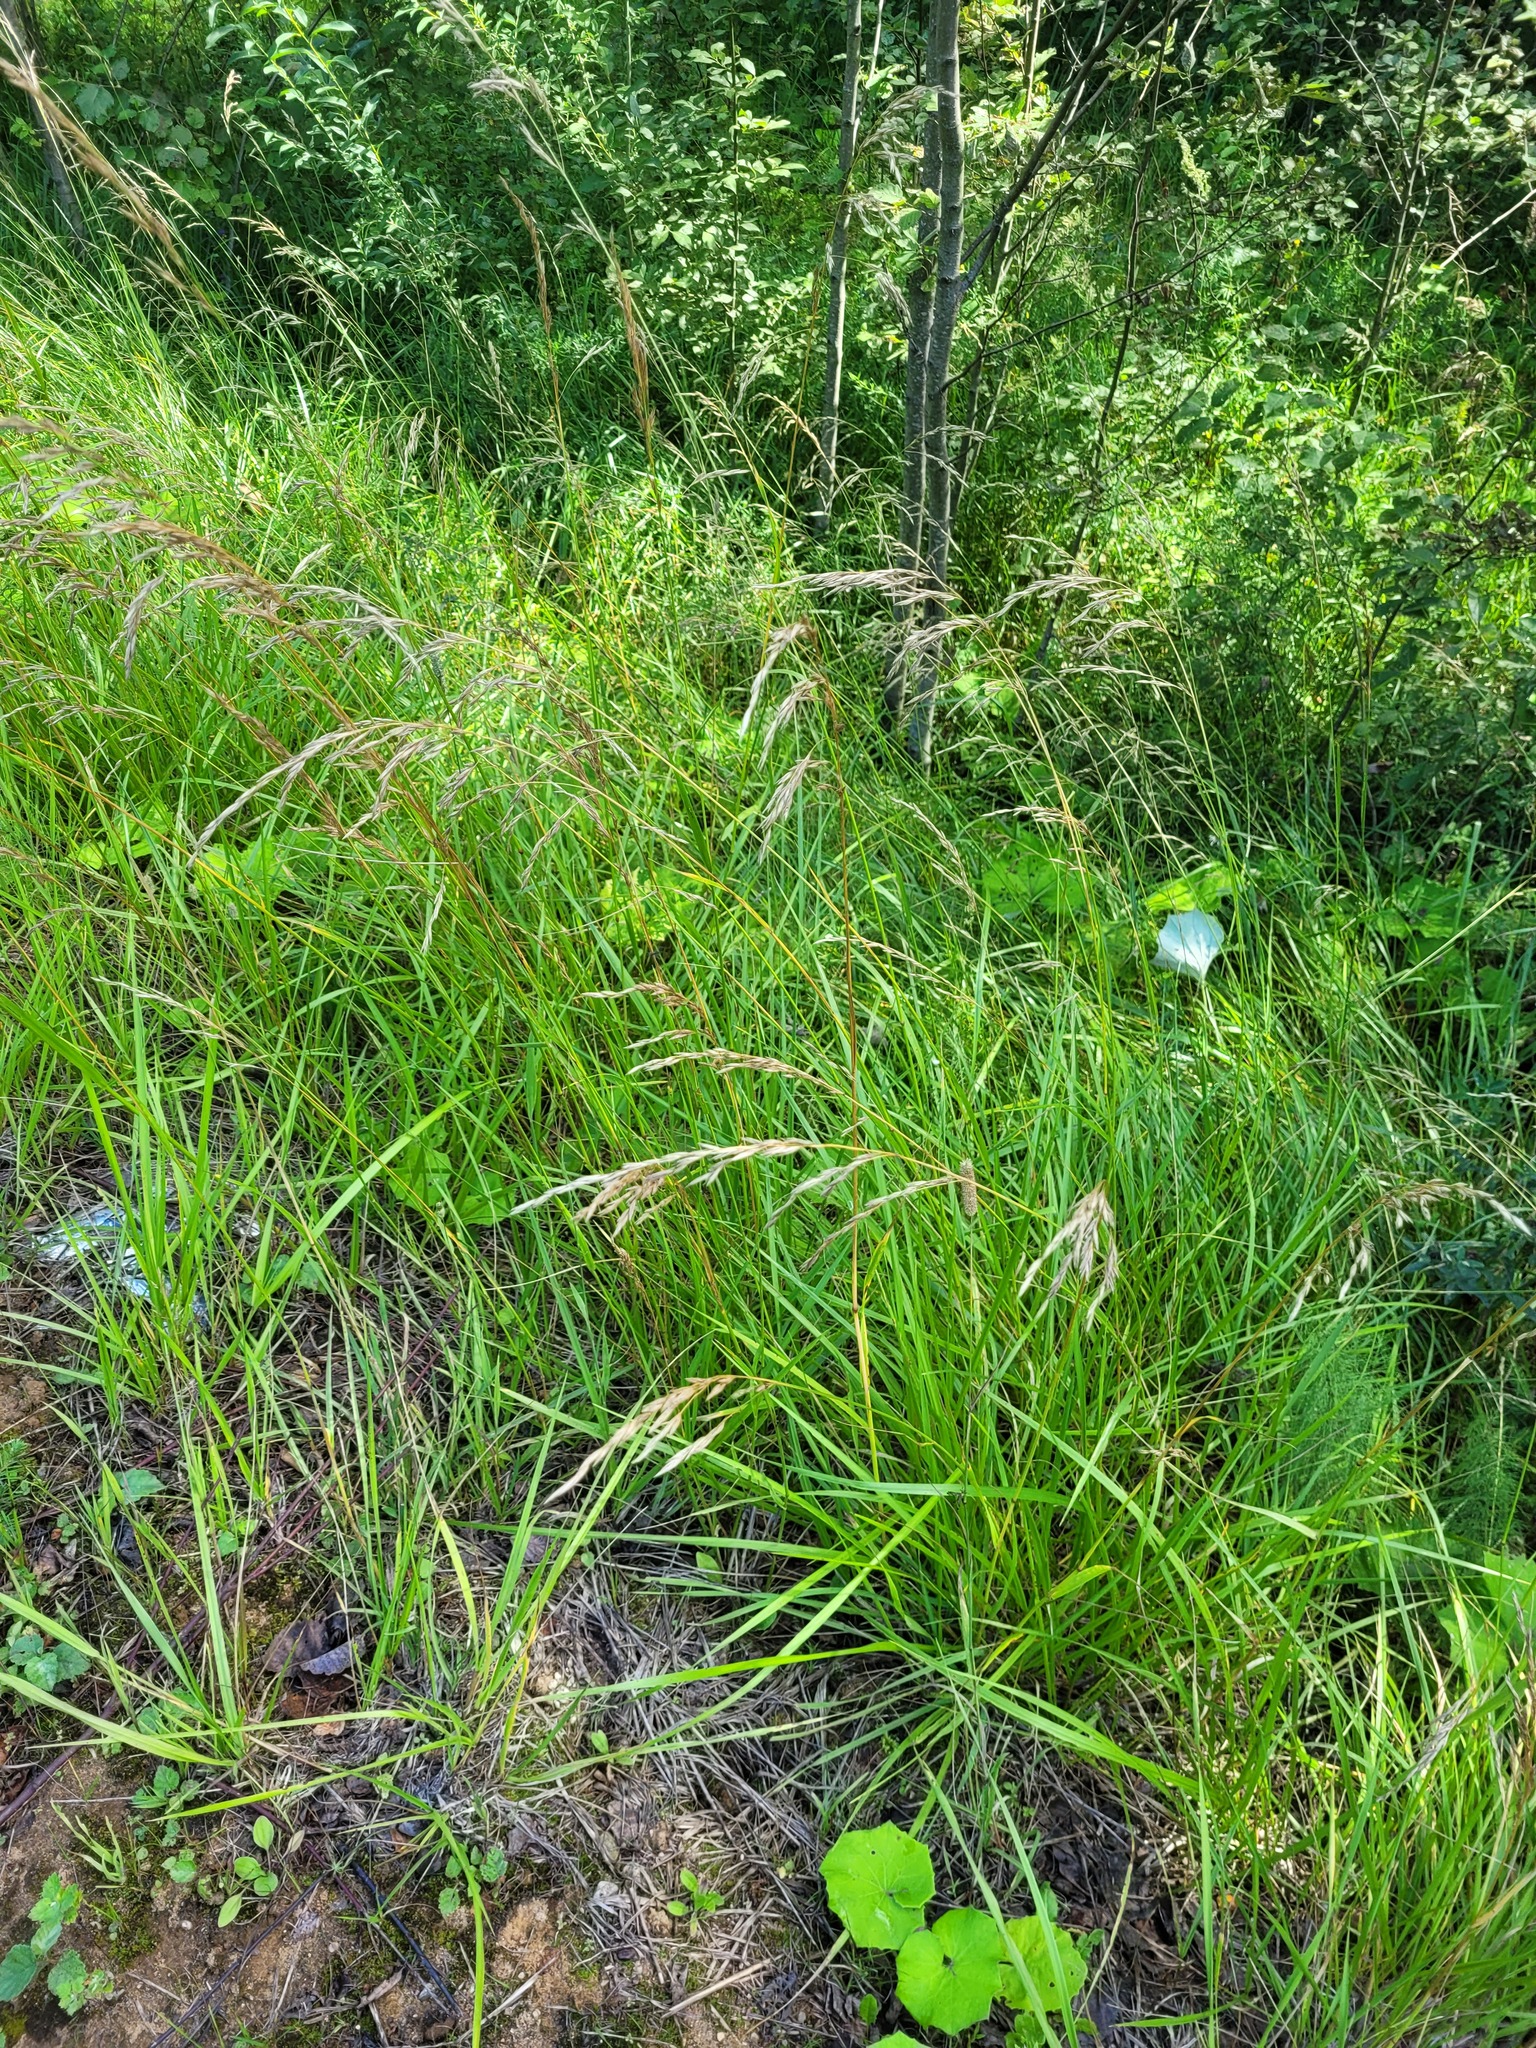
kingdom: Plantae
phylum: Tracheophyta
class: Liliopsida
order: Poales
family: Poaceae
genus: Lolium
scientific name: Lolium arundinaceum
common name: Reed fescue
